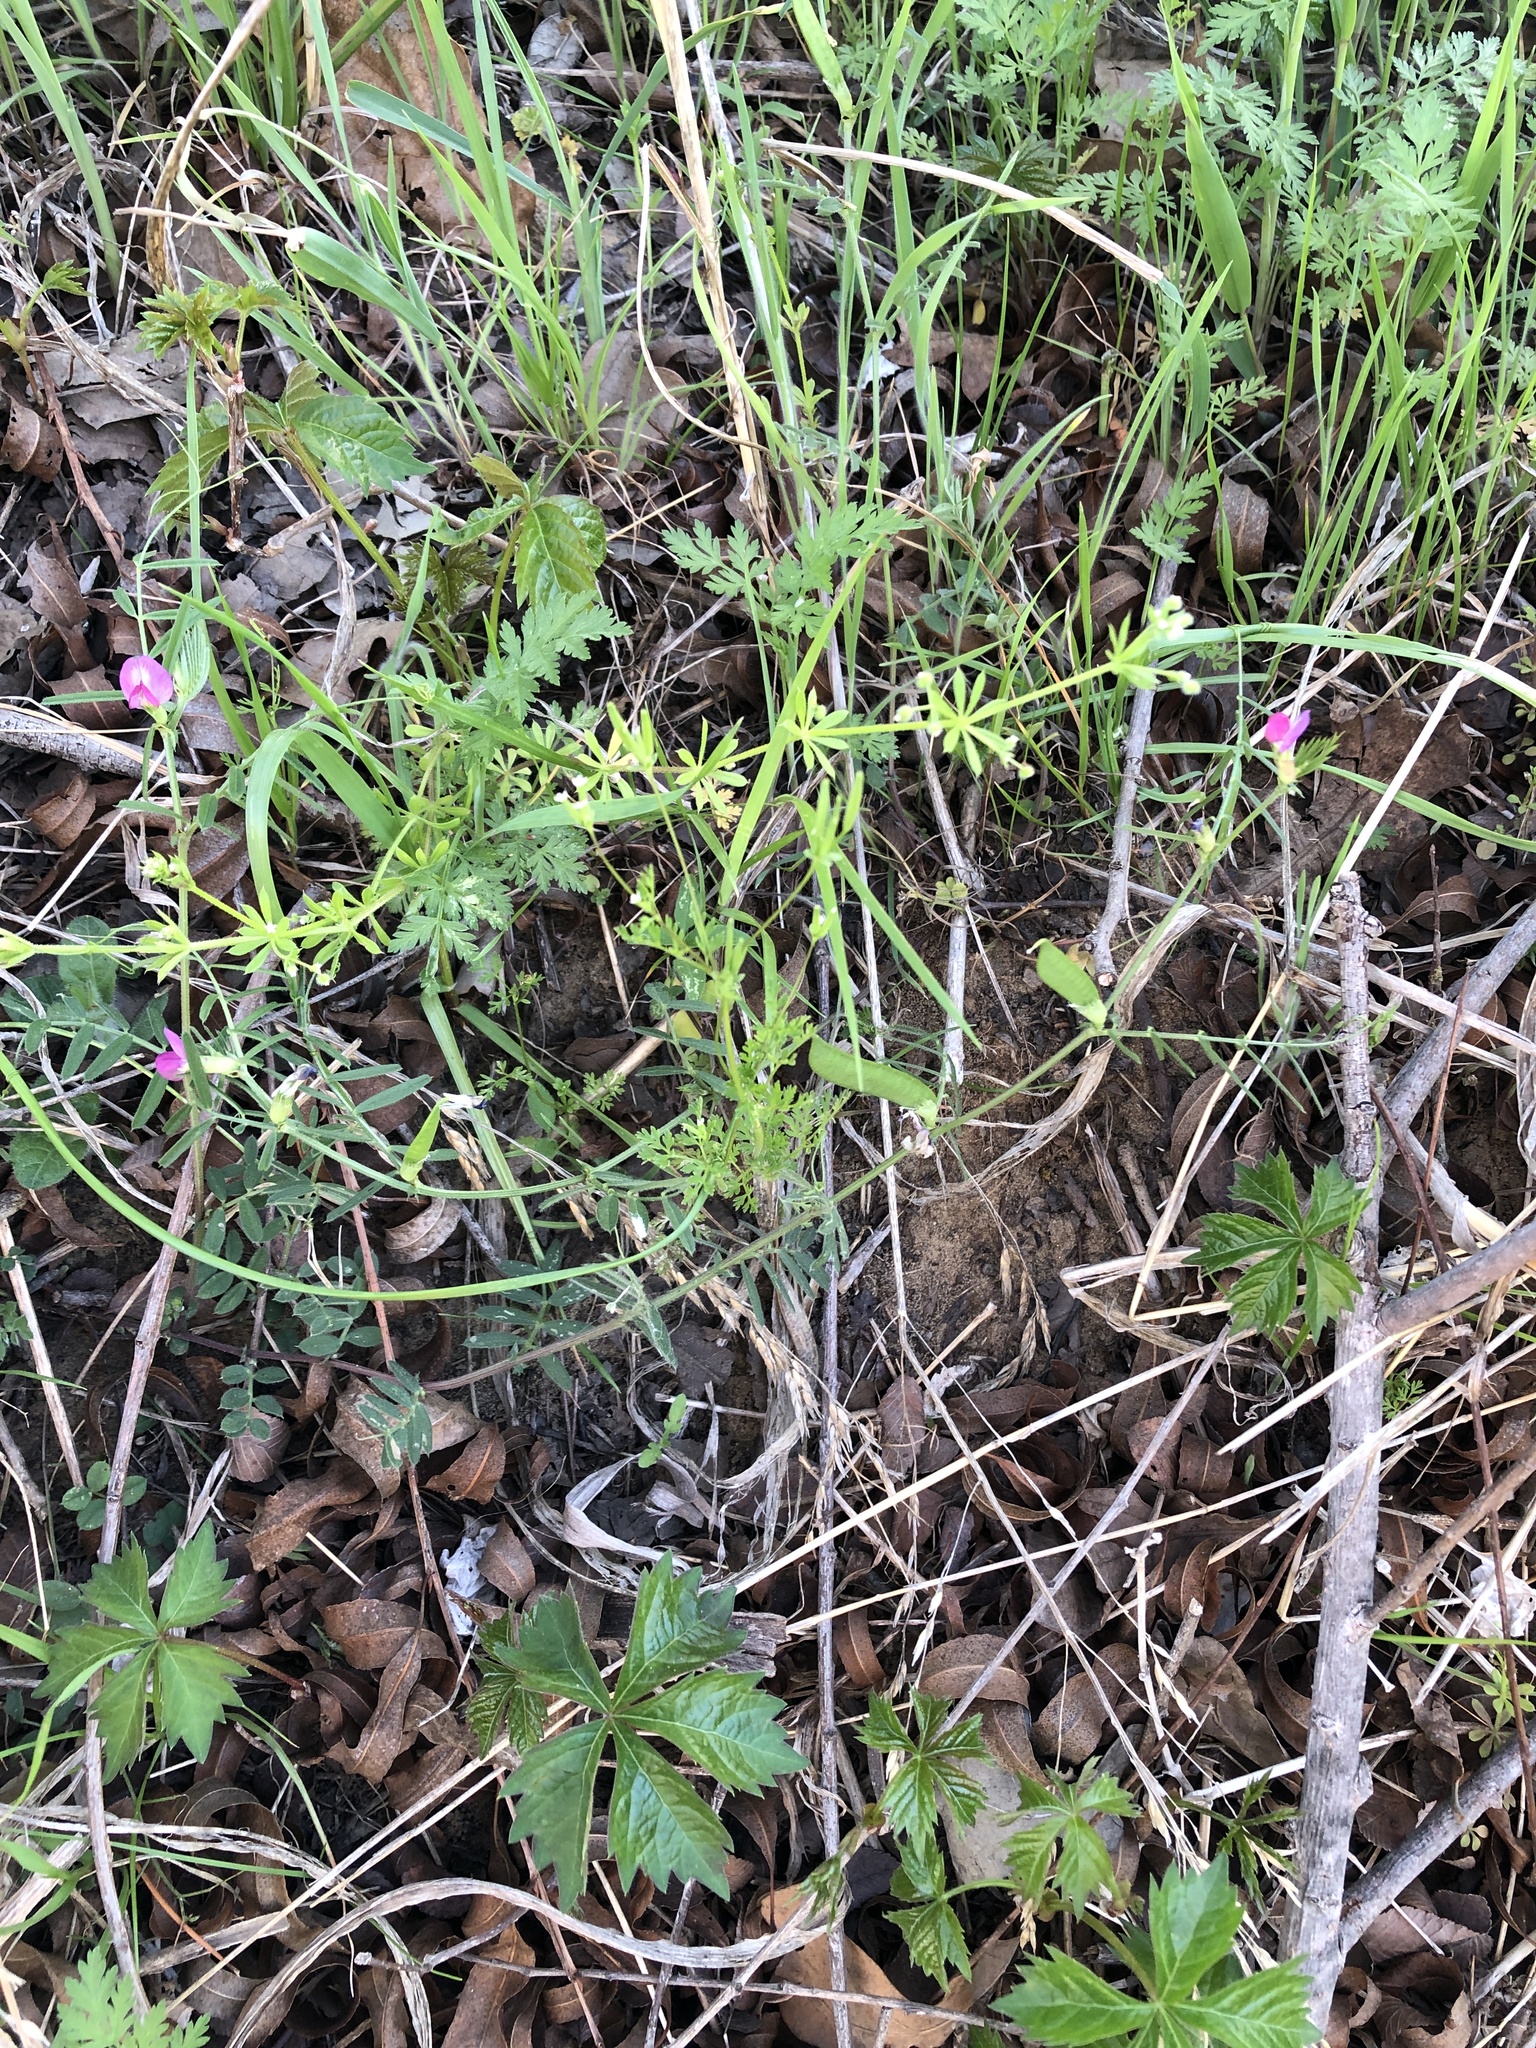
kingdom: Plantae
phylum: Tracheophyta
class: Magnoliopsida
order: Apiales
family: Apiaceae
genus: Chaerophyllum
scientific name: Chaerophyllum tainturieri
